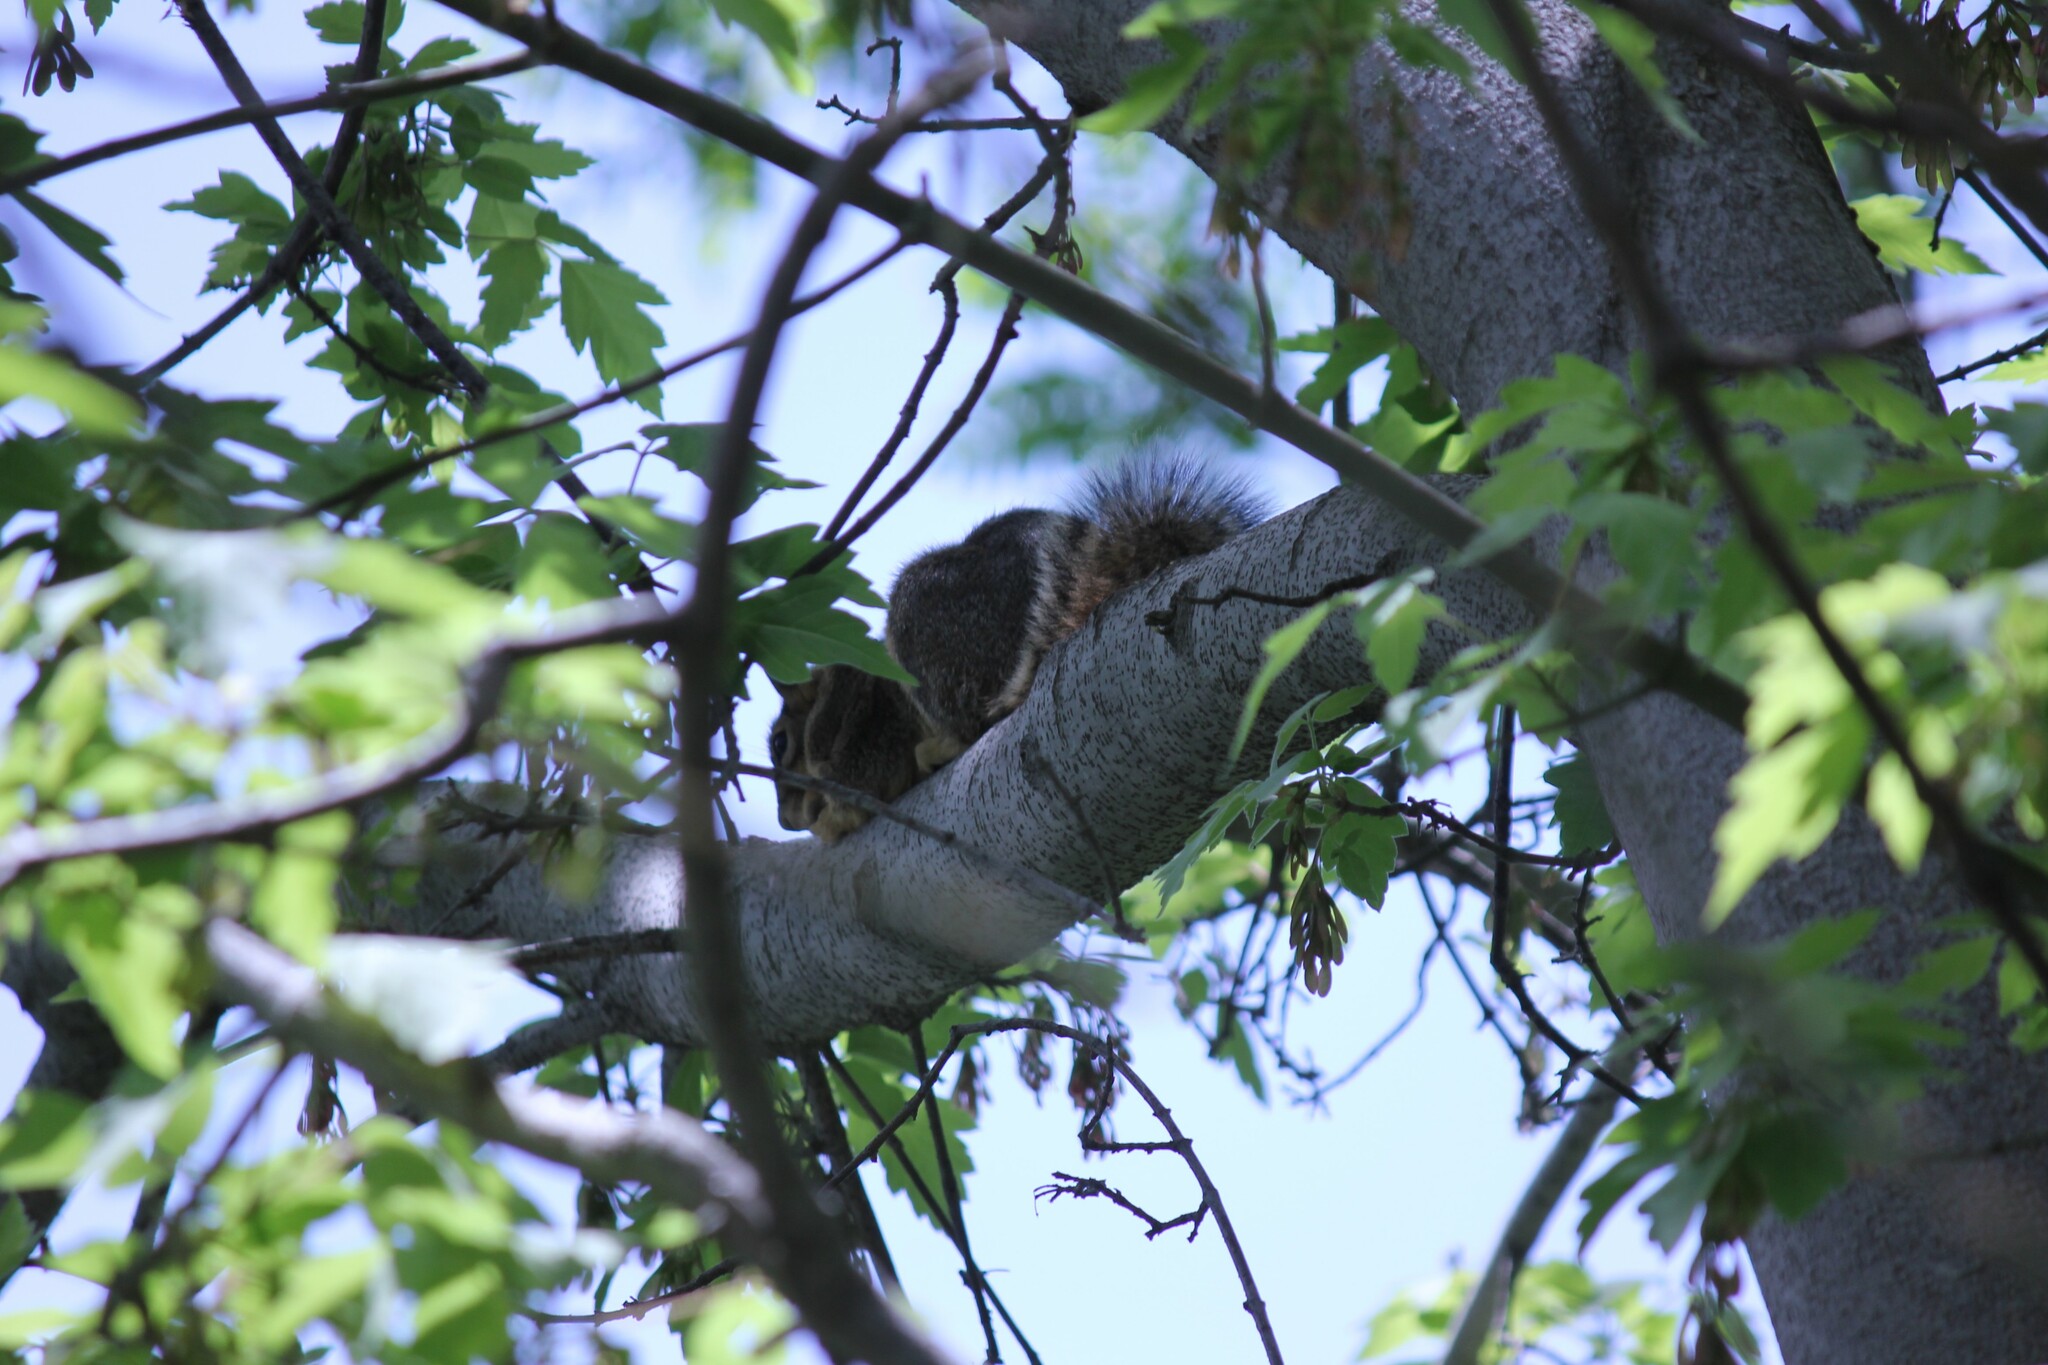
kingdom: Animalia
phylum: Chordata
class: Mammalia
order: Rodentia
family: Sciuridae
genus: Sciurus
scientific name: Sciurus niger
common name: Fox squirrel
